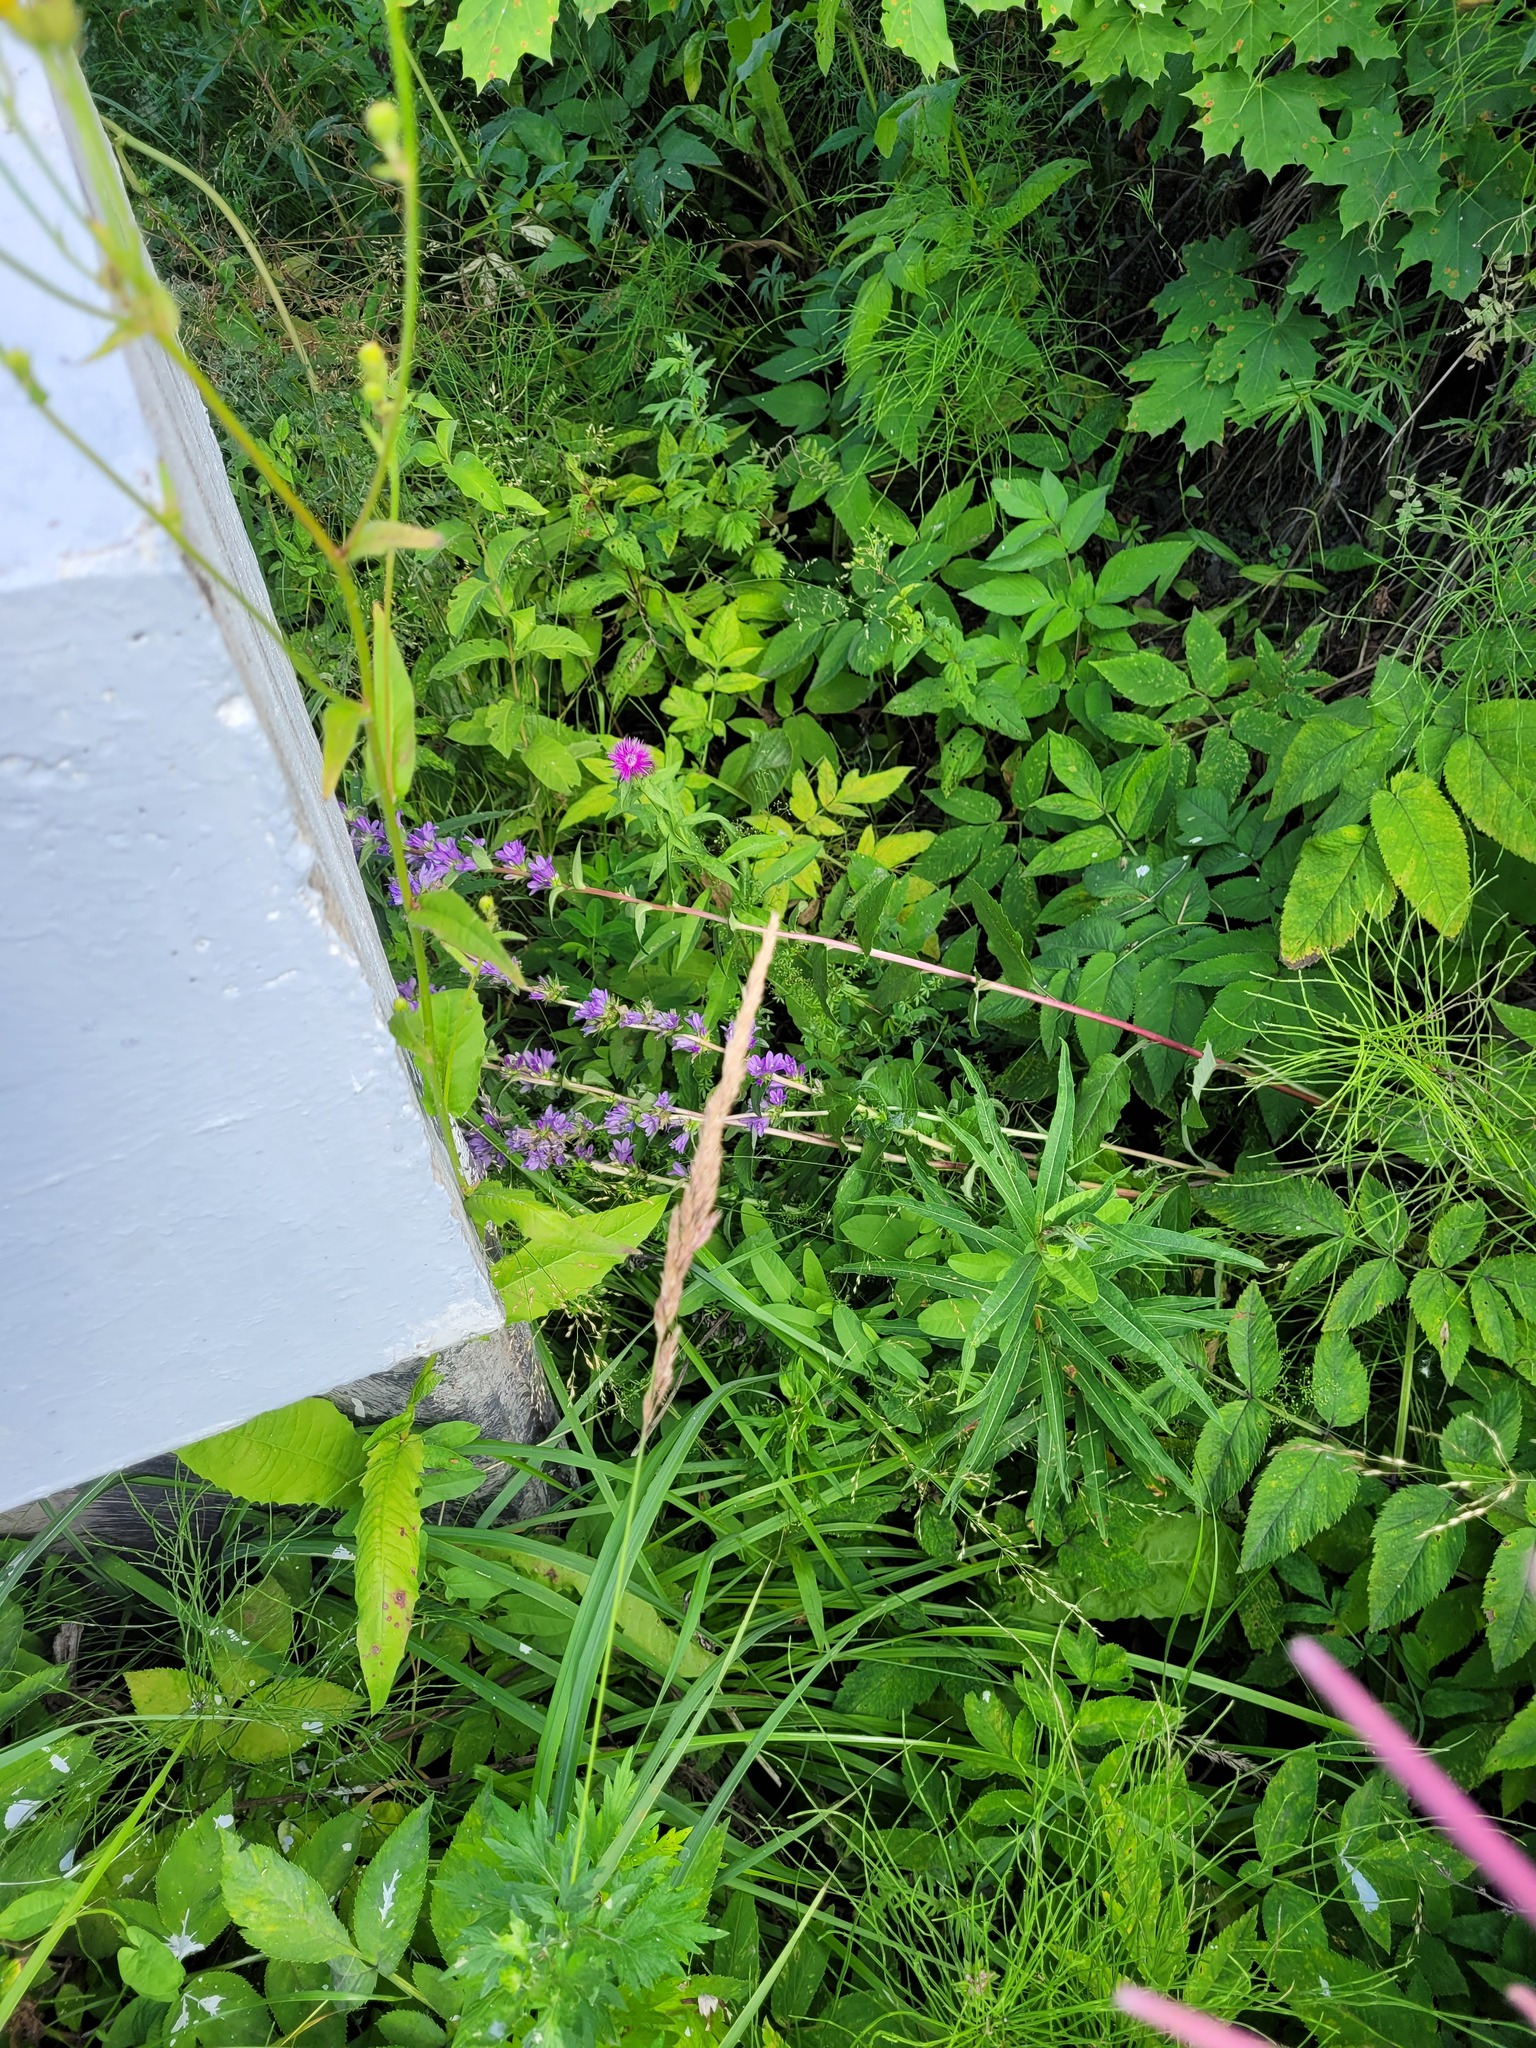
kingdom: Plantae
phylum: Tracheophyta
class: Magnoliopsida
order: Asterales
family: Campanulaceae
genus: Campanula
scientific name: Campanula glomerata
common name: Clustered bellflower
